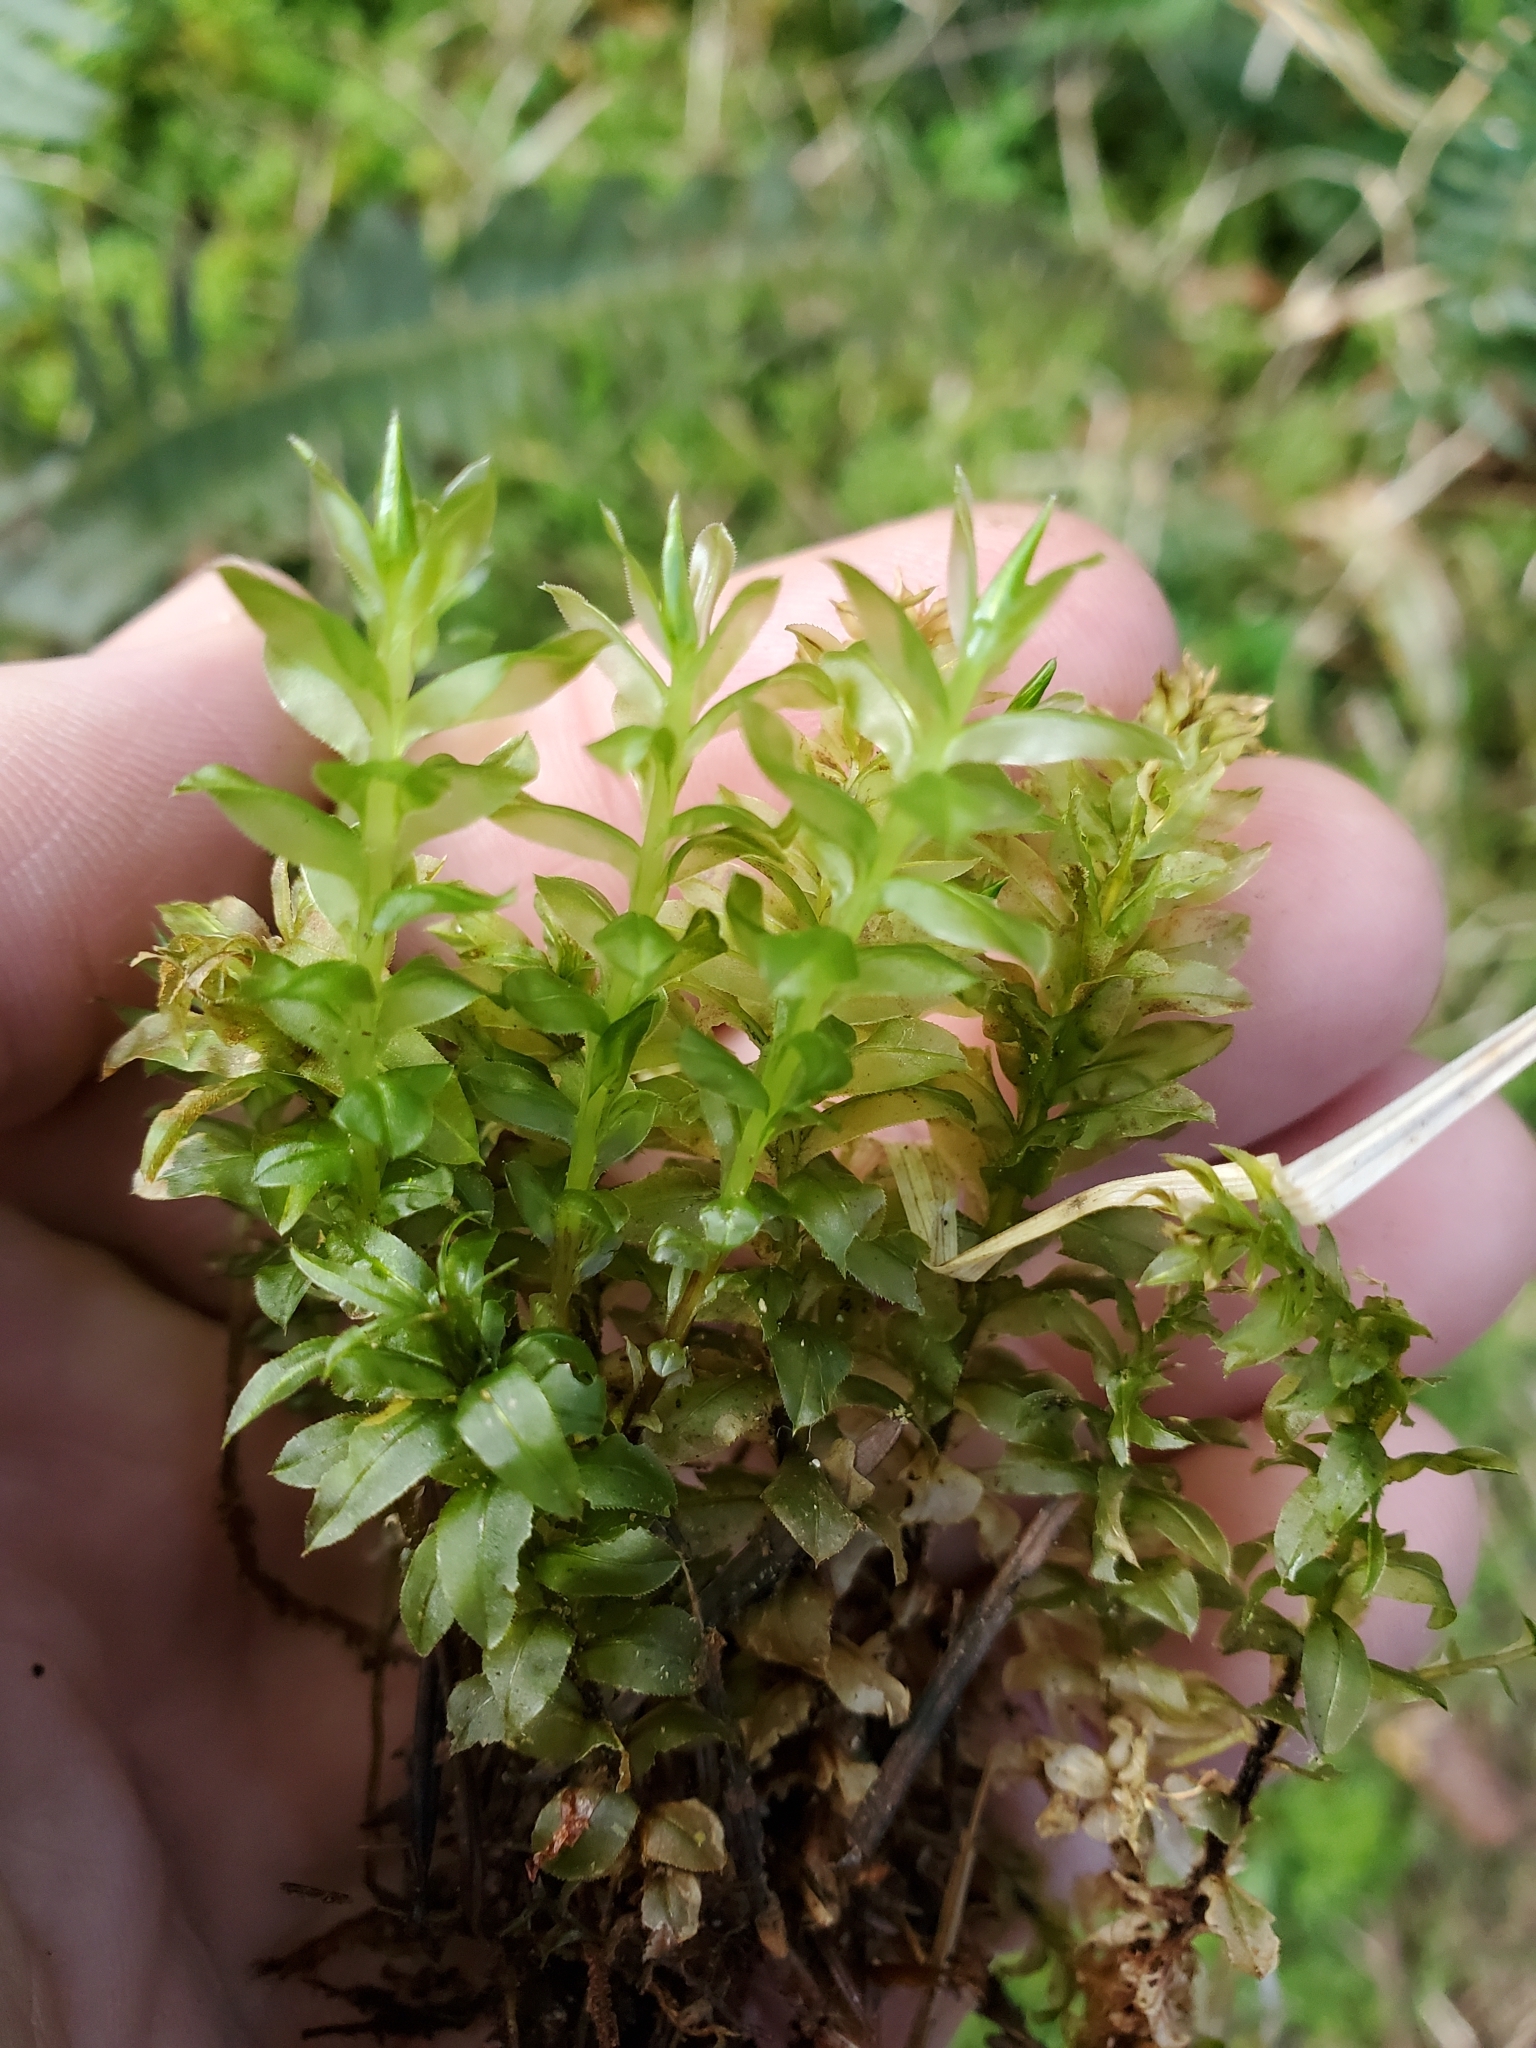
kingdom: Plantae
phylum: Bryophyta
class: Bryopsida
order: Bryales
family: Mniaceae
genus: Plagiomnium
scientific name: Plagiomnium insigne
